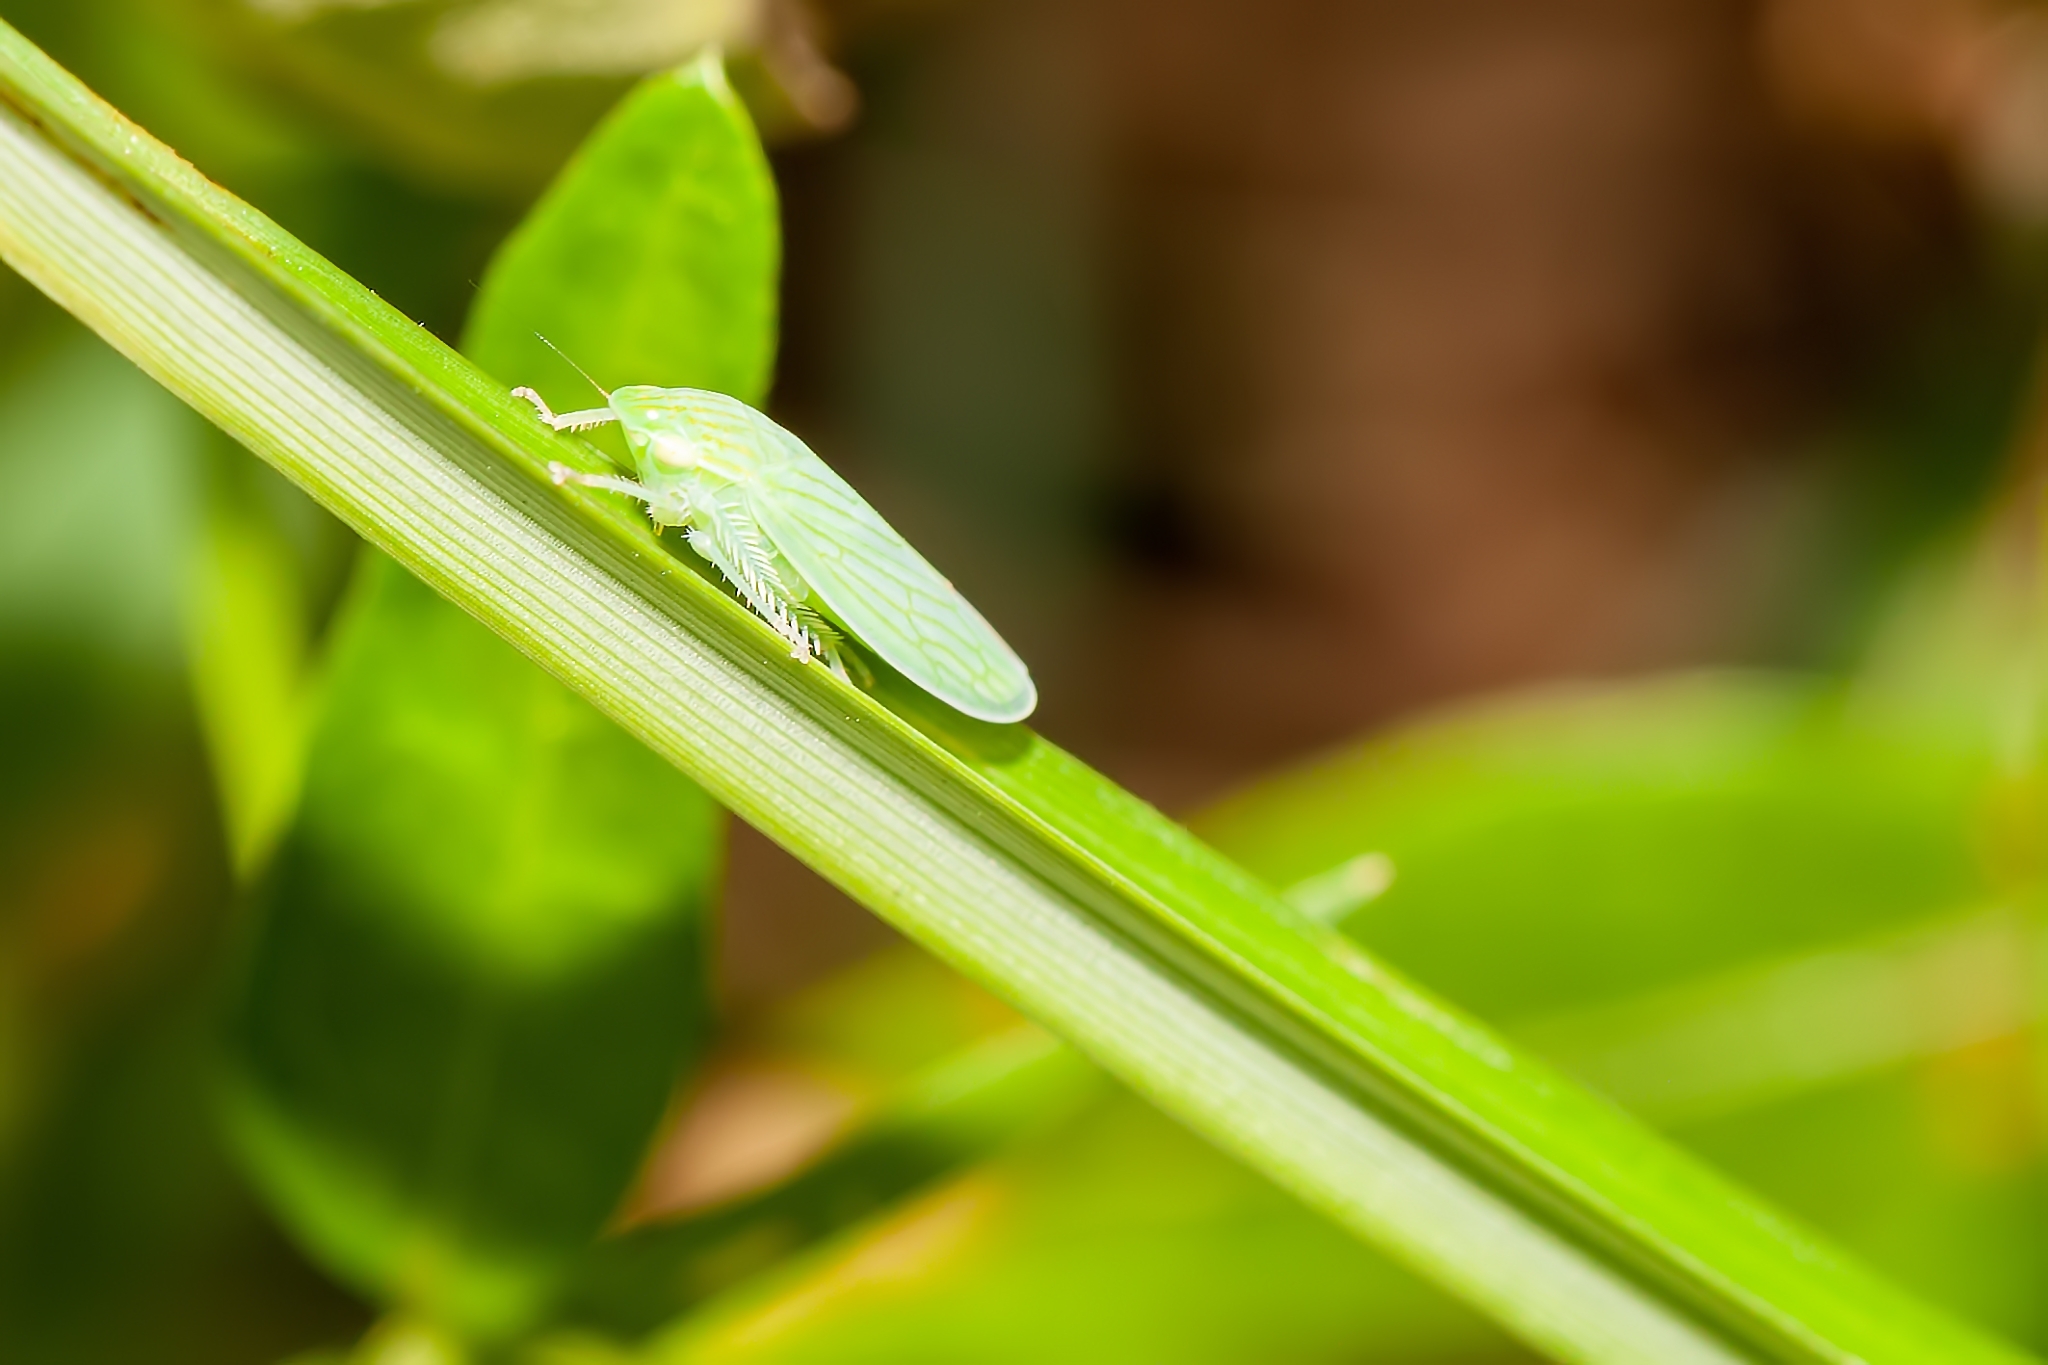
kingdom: Animalia
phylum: Arthropoda
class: Insecta
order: Hemiptera
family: Cicadellidae
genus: Gyponana
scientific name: Gyponana tenella
